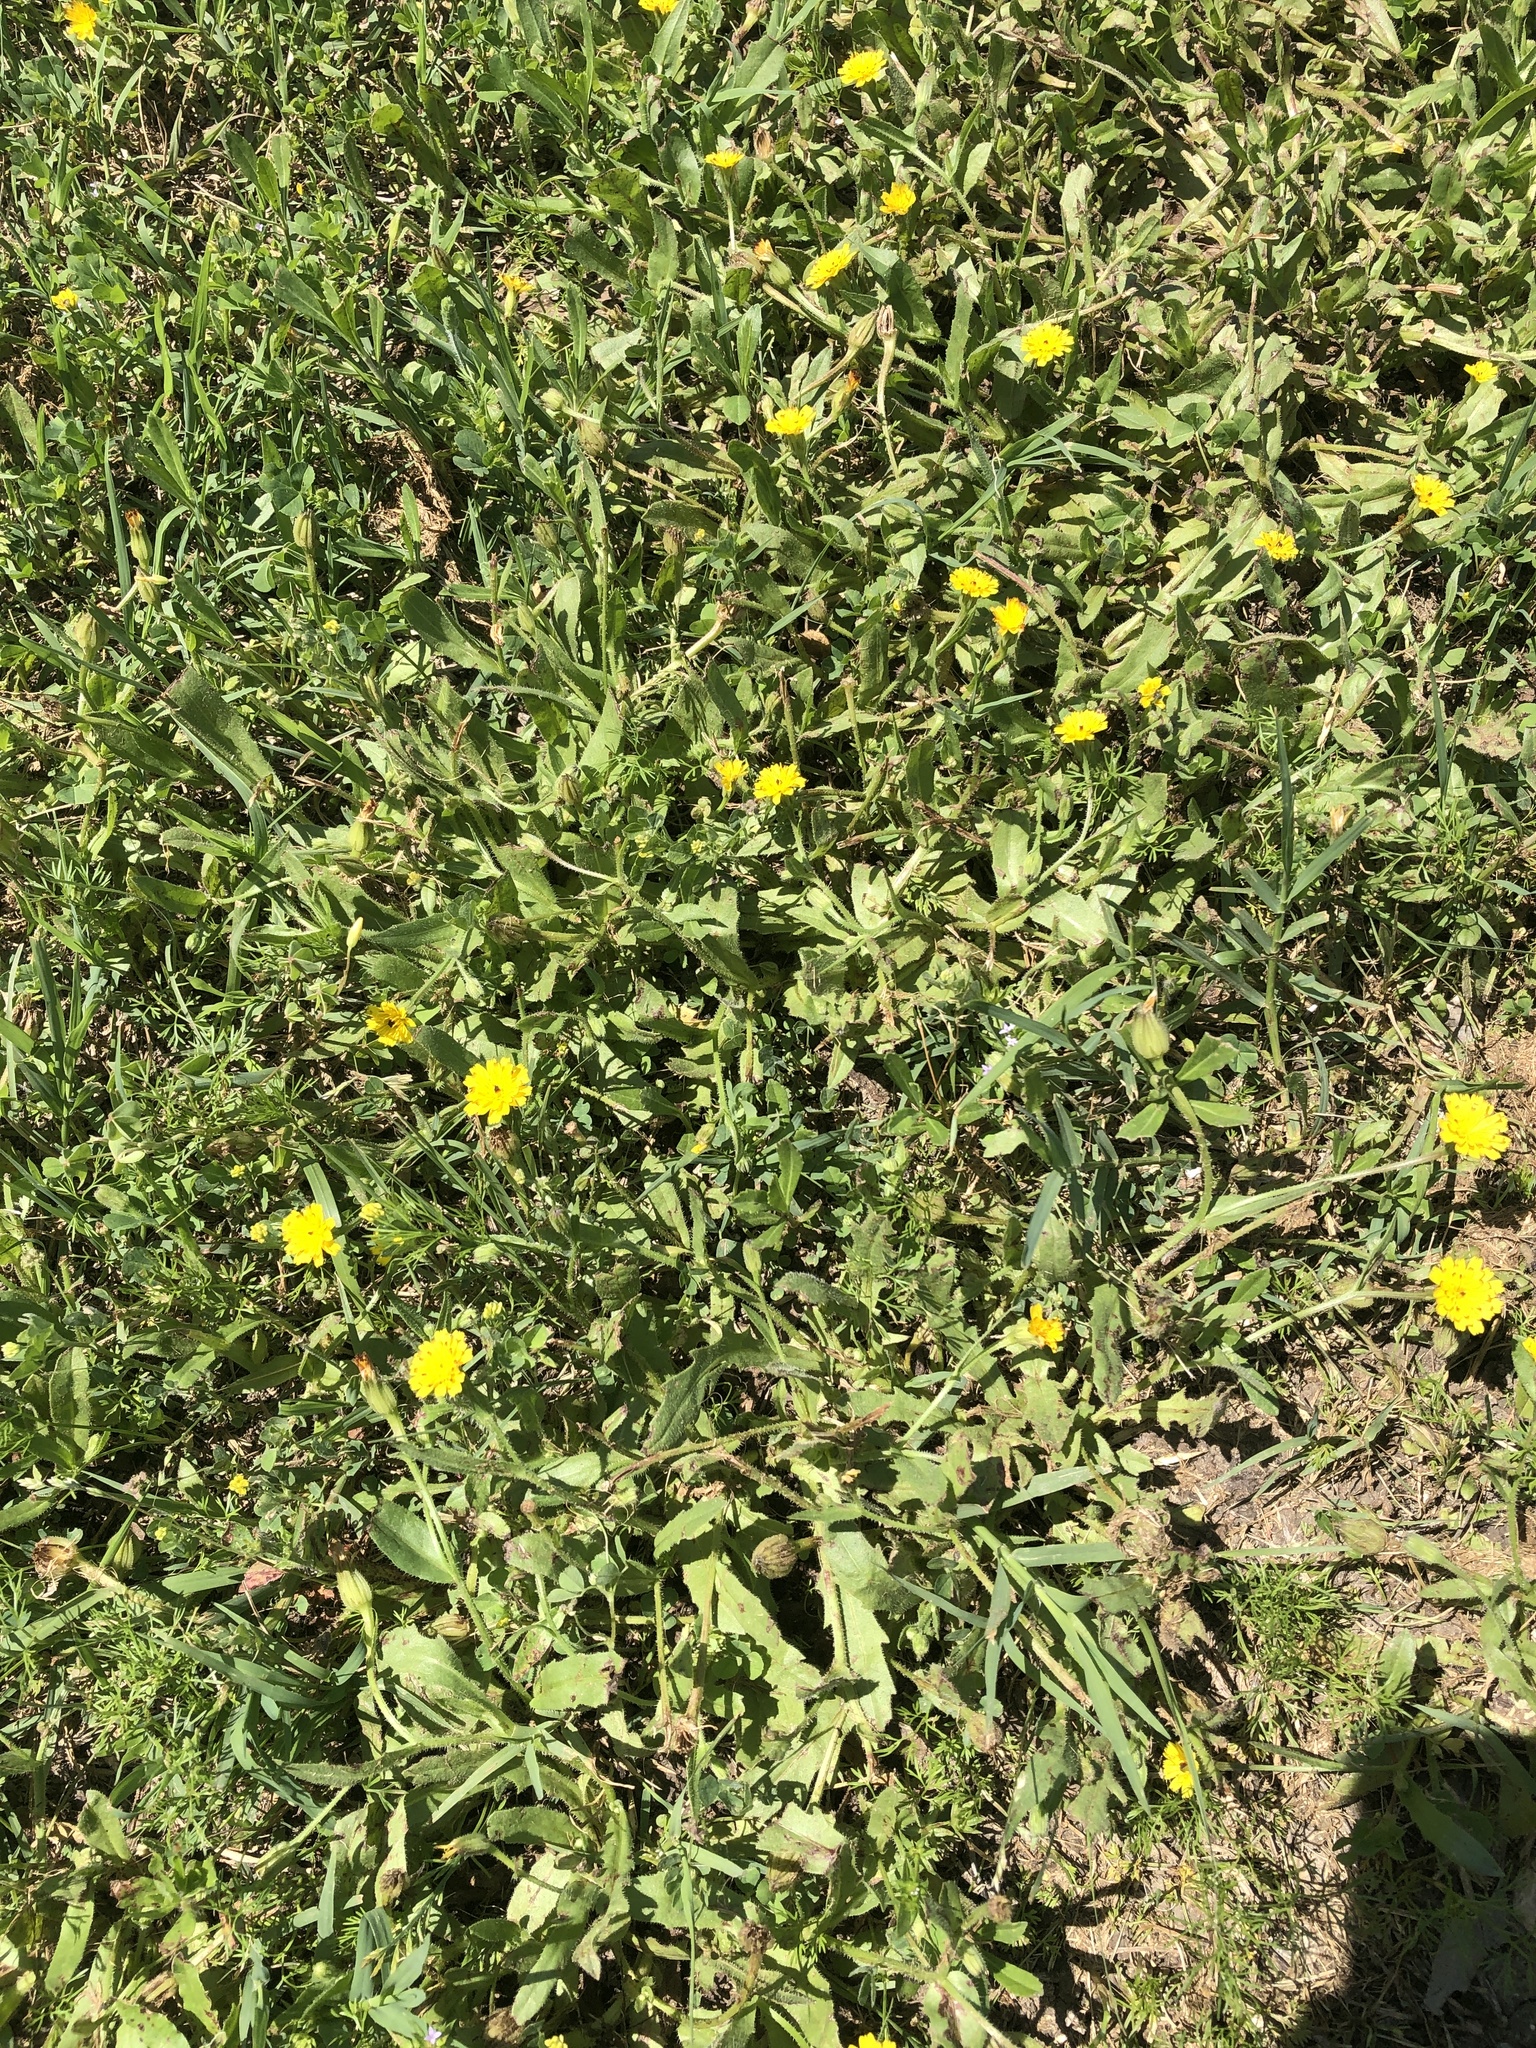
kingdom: Plantae
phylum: Tracheophyta
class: Magnoliopsida
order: Asterales
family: Asteraceae
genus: Hedypnois
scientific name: Hedypnois rhagadioloides
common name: Cretan weed
